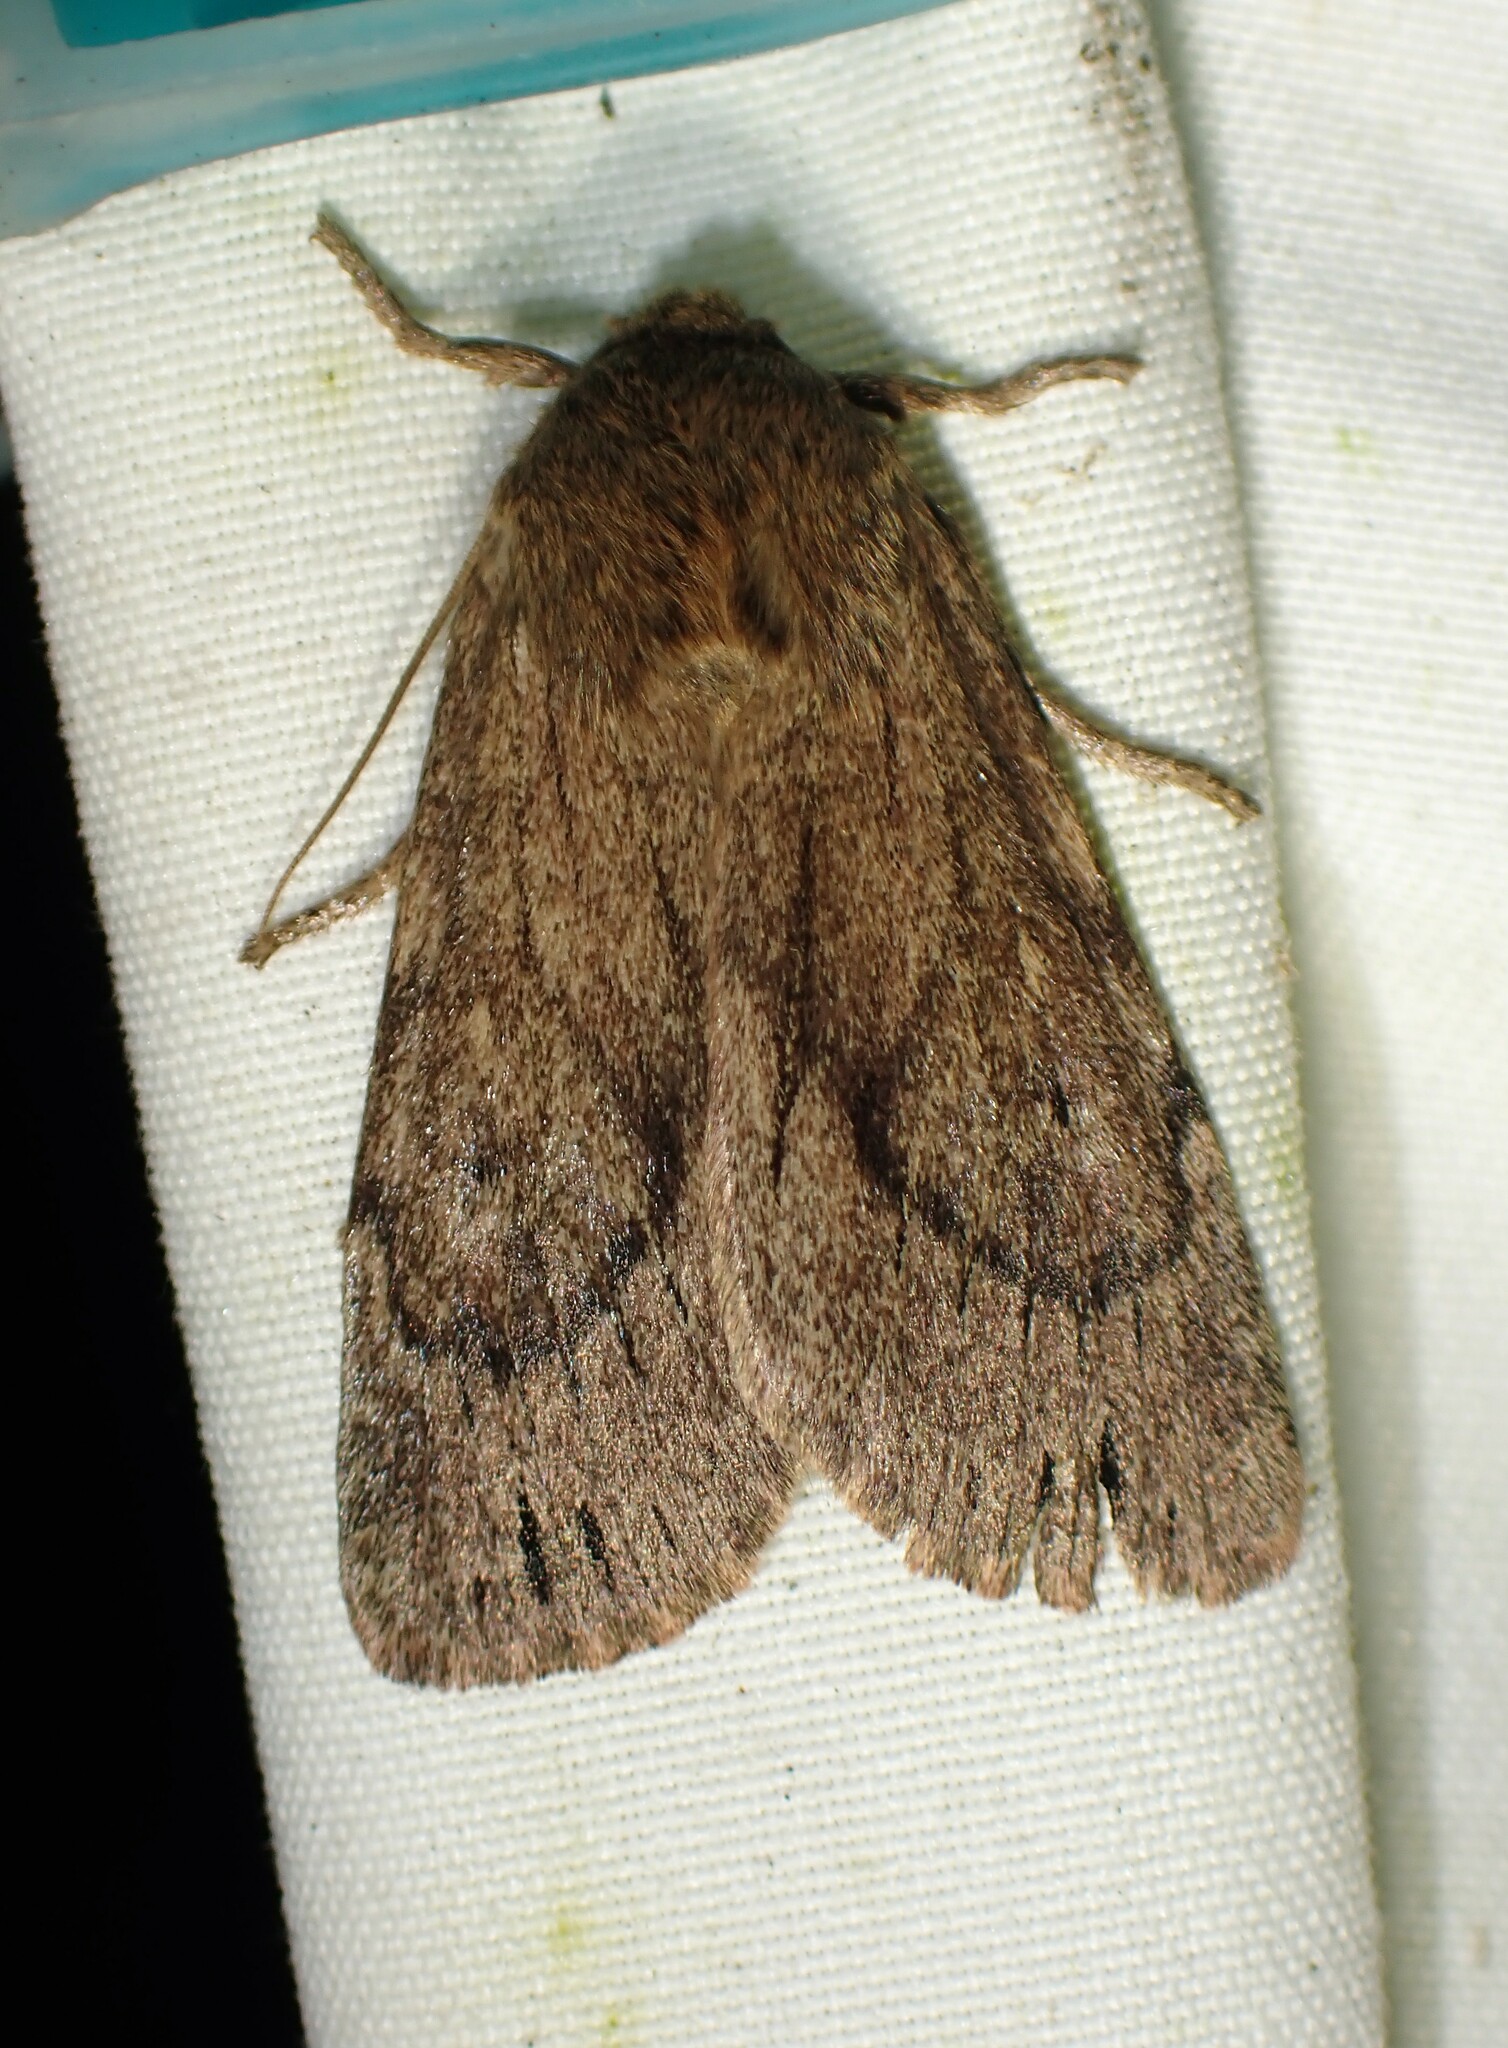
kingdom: Animalia
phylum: Arthropoda
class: Insecta
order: Lepidoptera
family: Noctuidae
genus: Ufeus
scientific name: Ufeus satyricus
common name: Brown satyr moth
